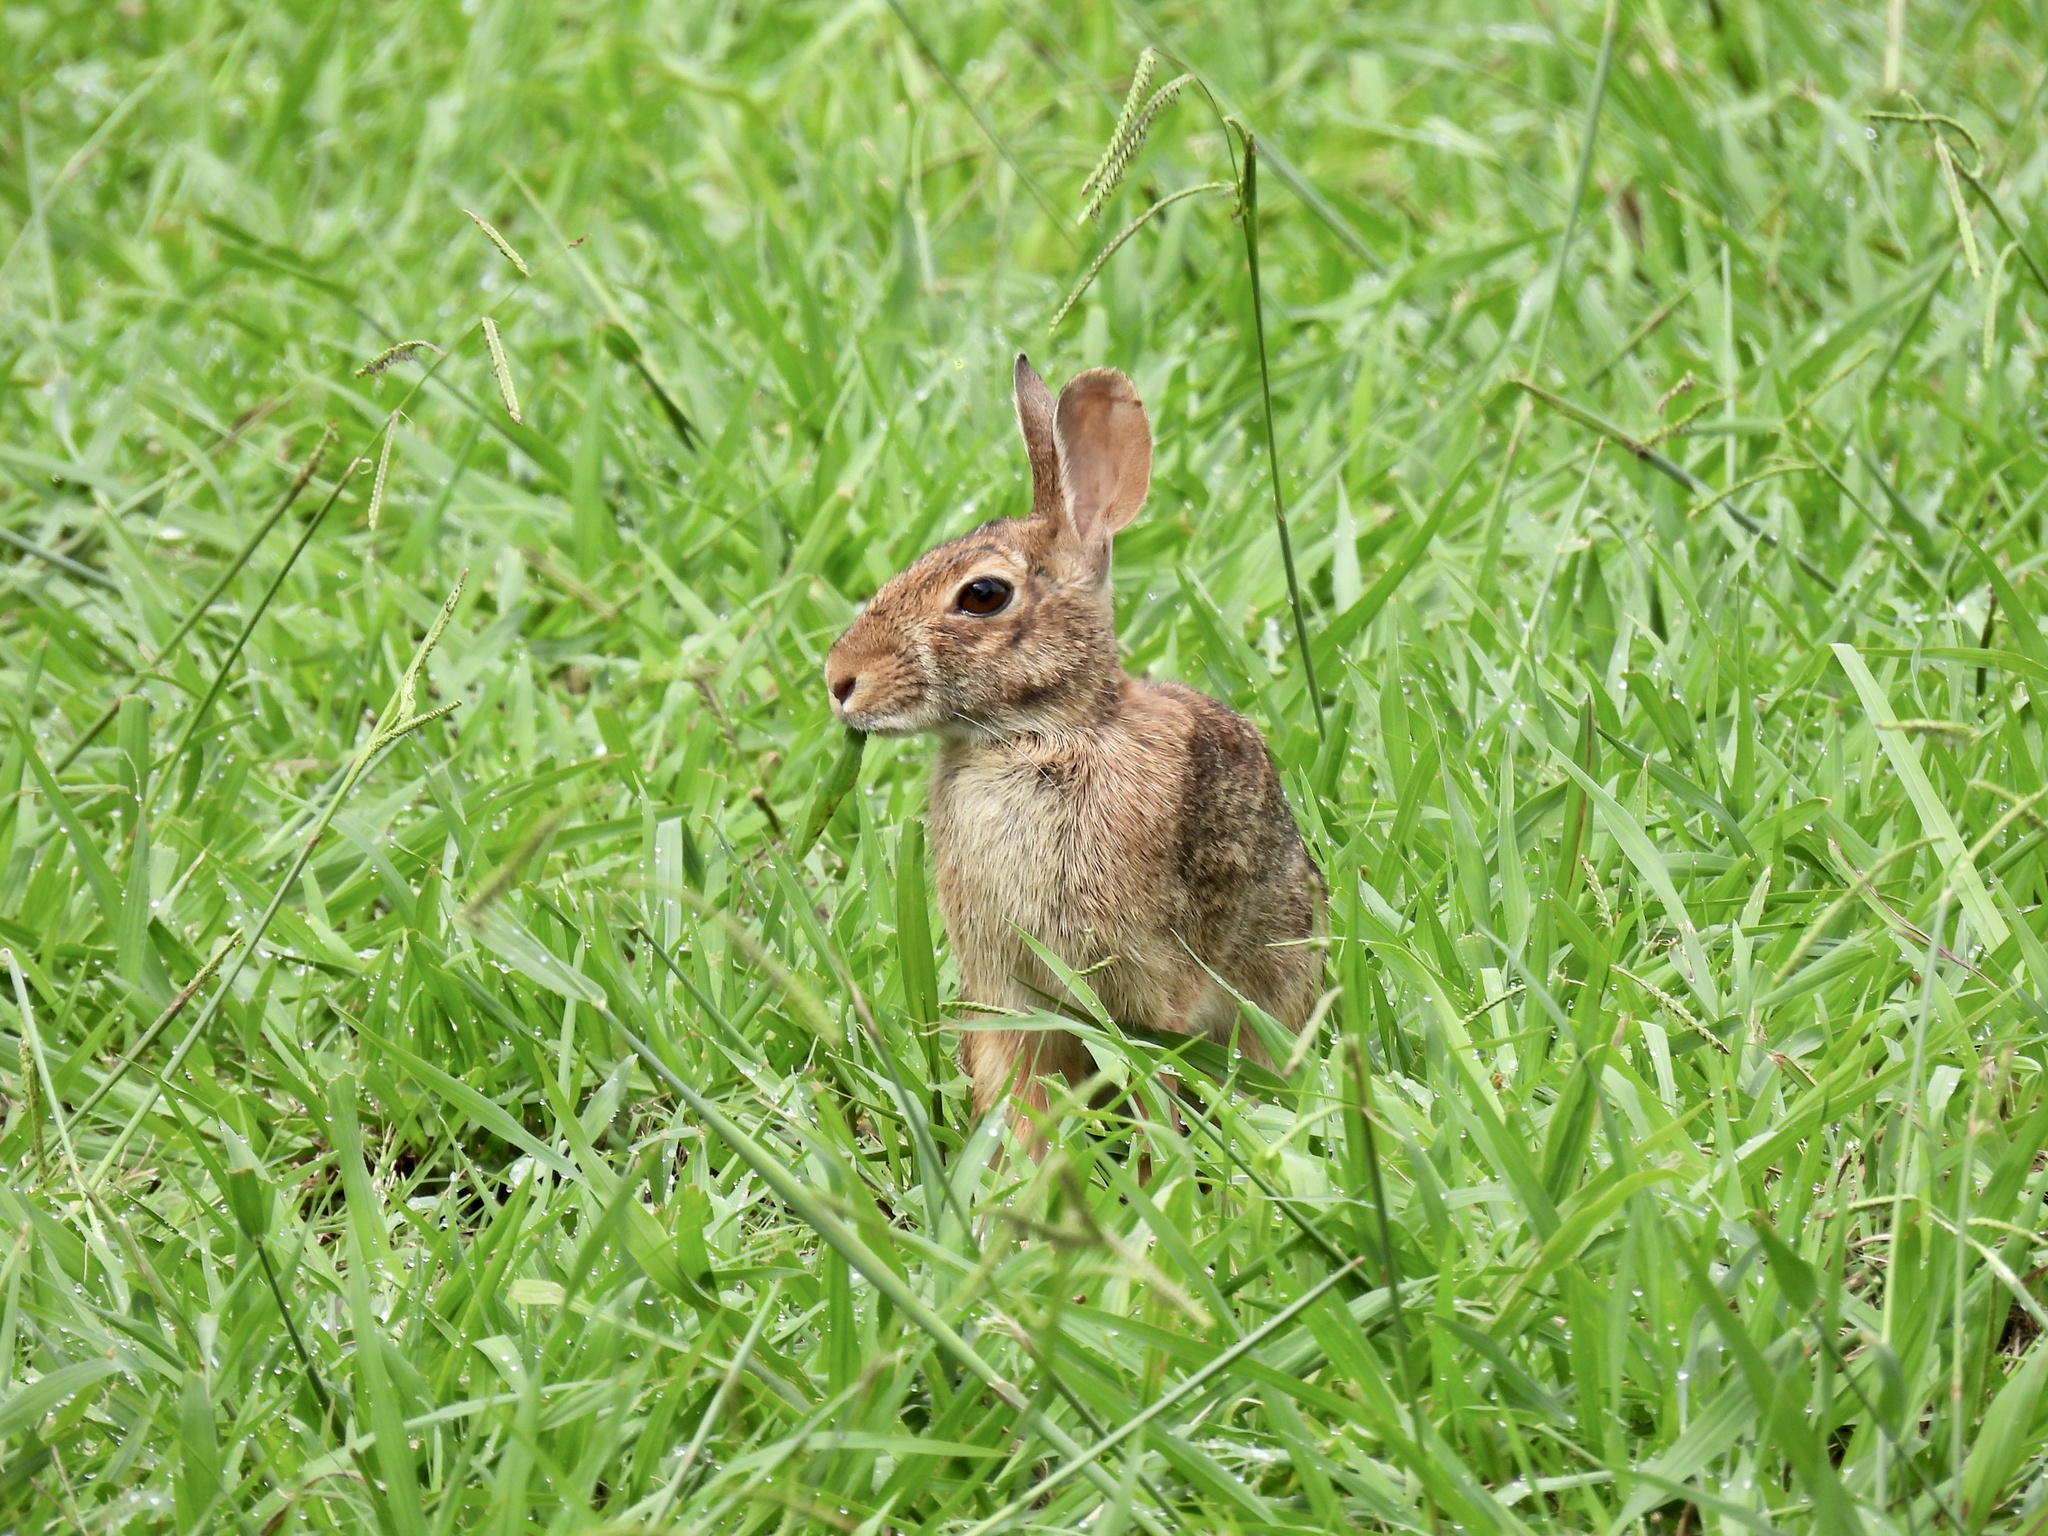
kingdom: Animalia
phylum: Chordata
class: Mammalia
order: Lagomorpha
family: Leporidae
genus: Sylvilagus
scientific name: Sylvilagus floridanus
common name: Eastern cottontail
